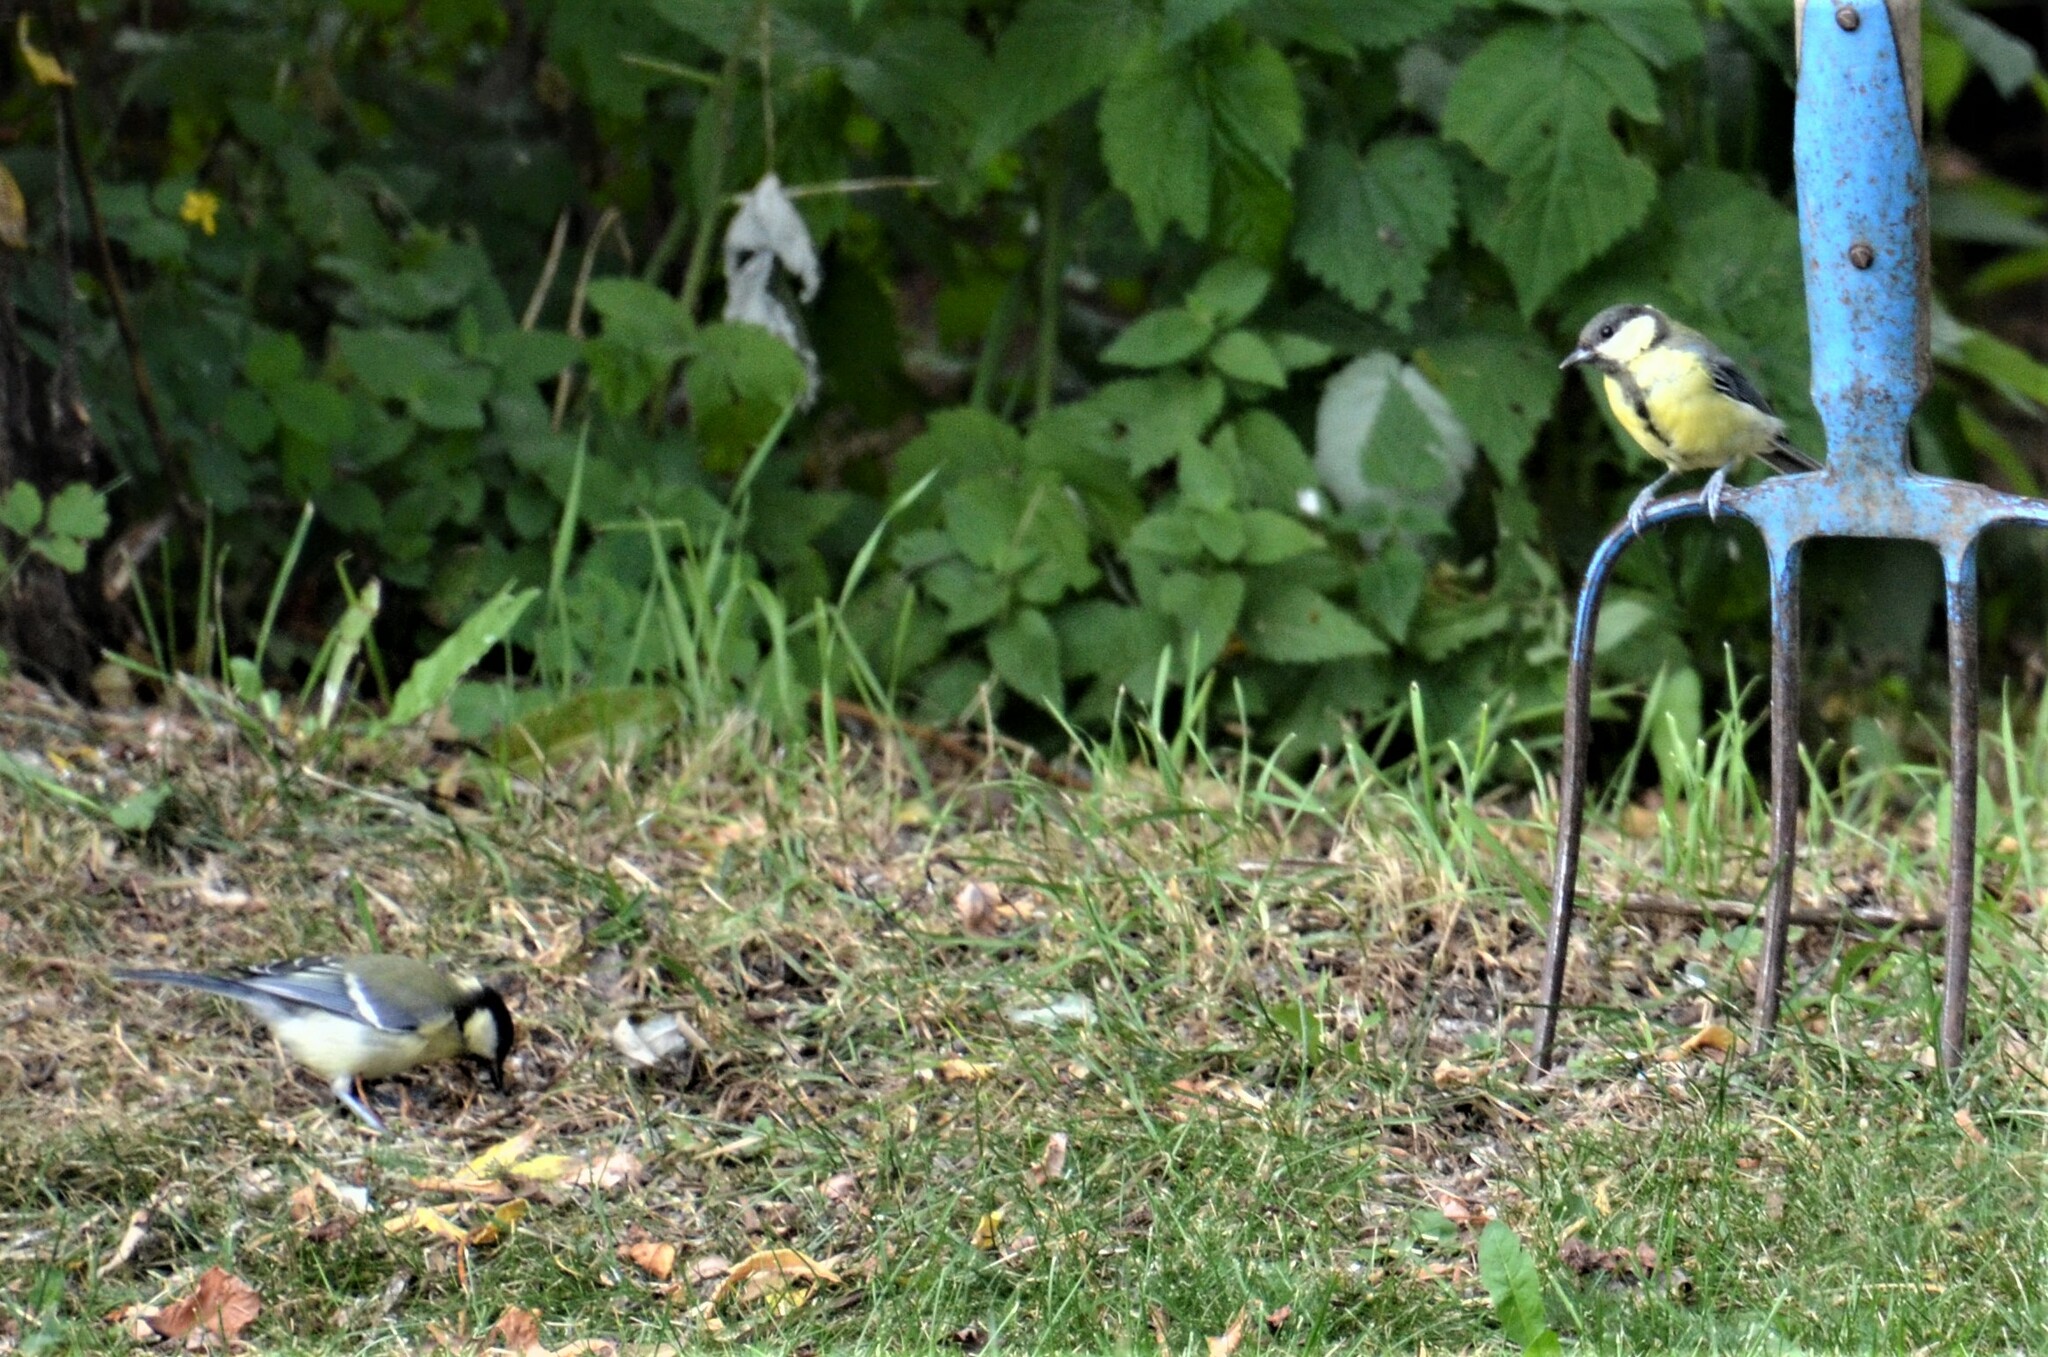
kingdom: Animalia
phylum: Chordata
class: Aves
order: Passeriformes
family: Paridae
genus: Parus
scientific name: Parus major
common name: Great tit
